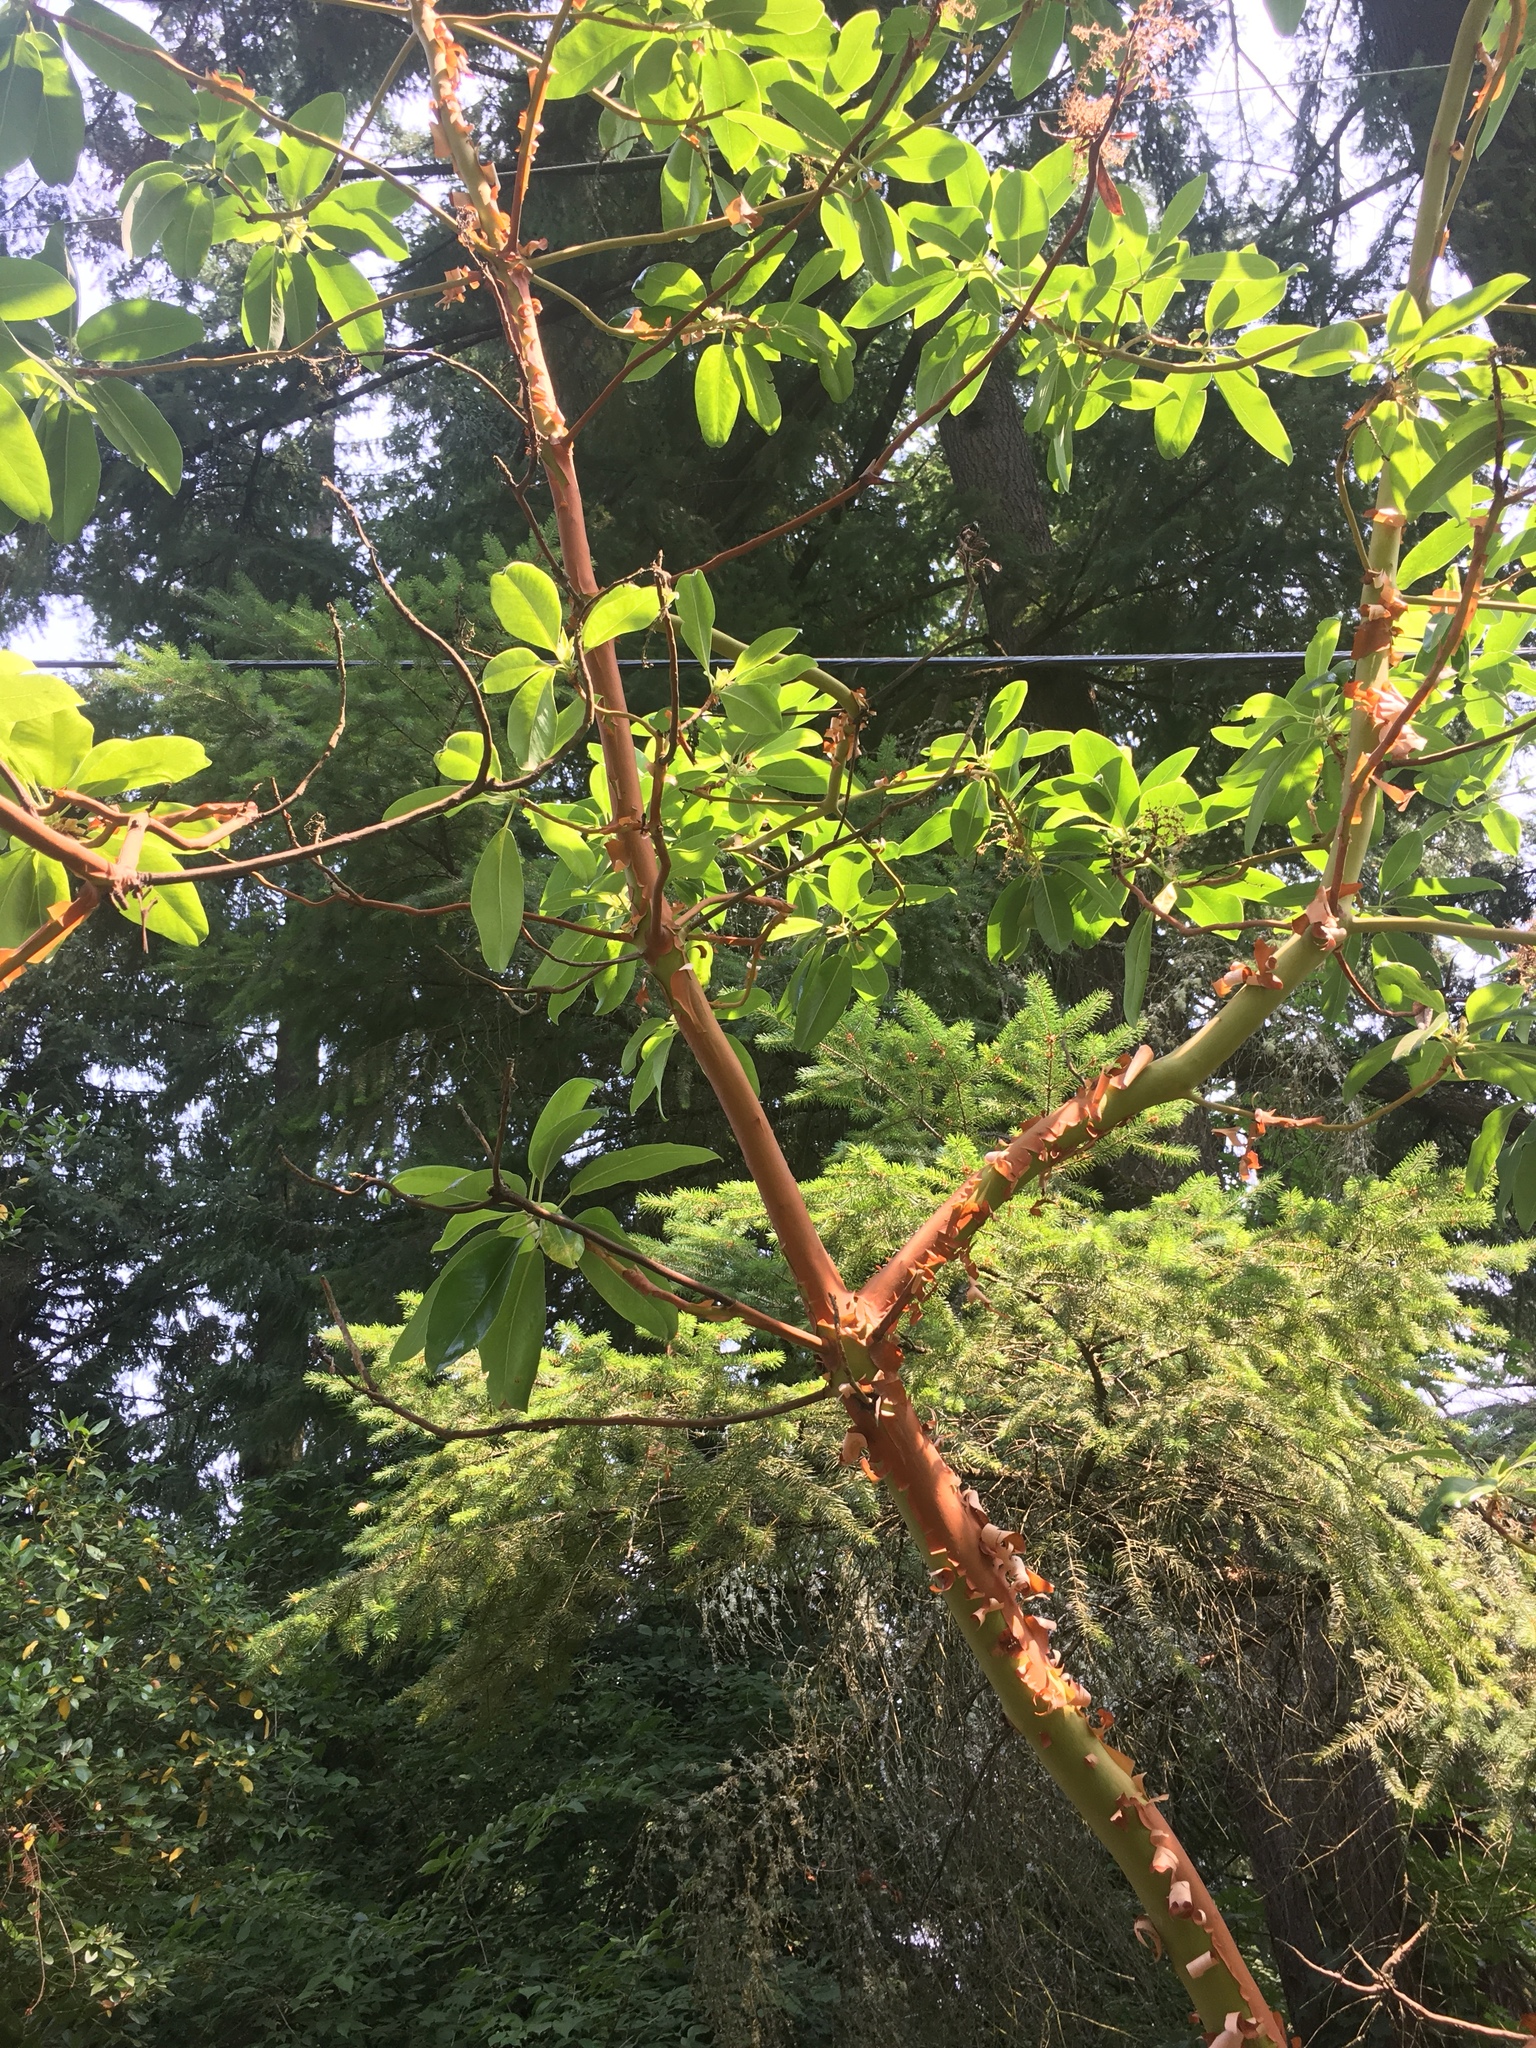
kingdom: Plantae
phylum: Tracheophyta
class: Magnoliopsida
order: Ericales
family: Ericaceae
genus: Arbutus
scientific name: Arbutus menziesii
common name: Pacific madrone
